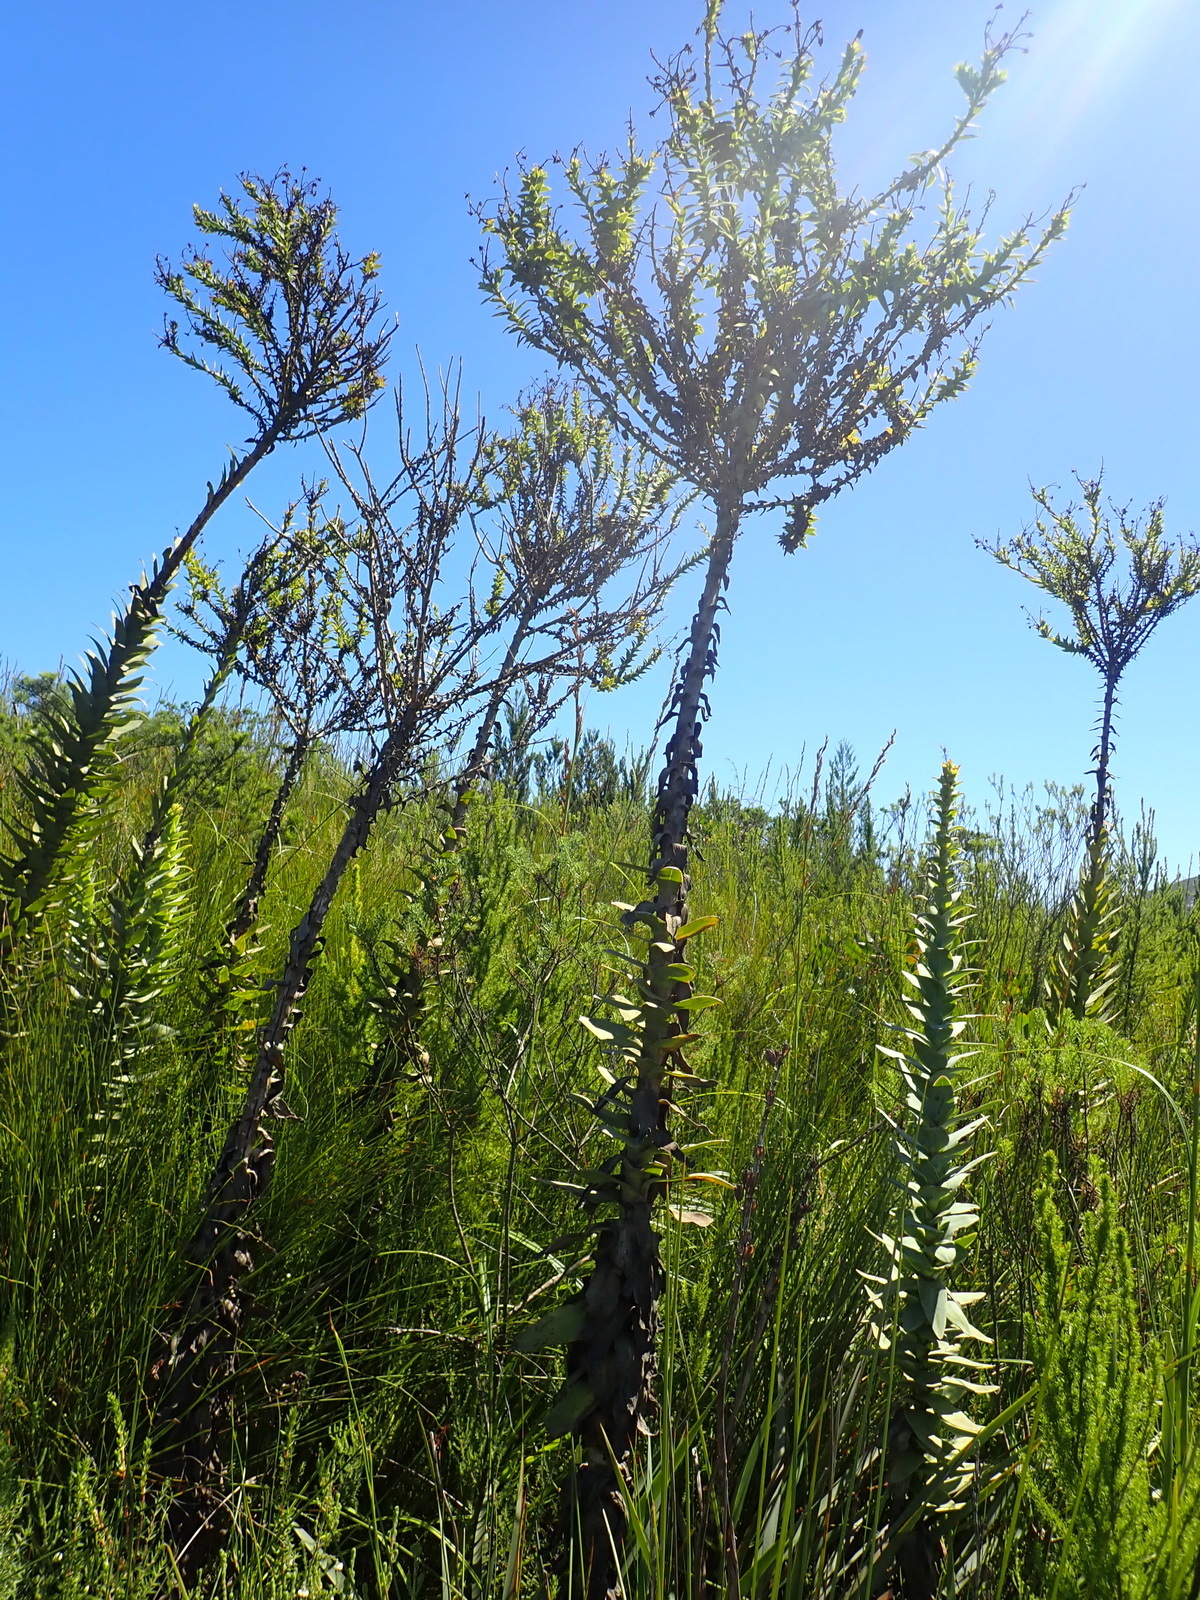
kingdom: Plantae
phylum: Tracheophyta
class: Magnoliopsida
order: Asterales
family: Asteraceae
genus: Osteospermum
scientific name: Osteospermum corymbosum
